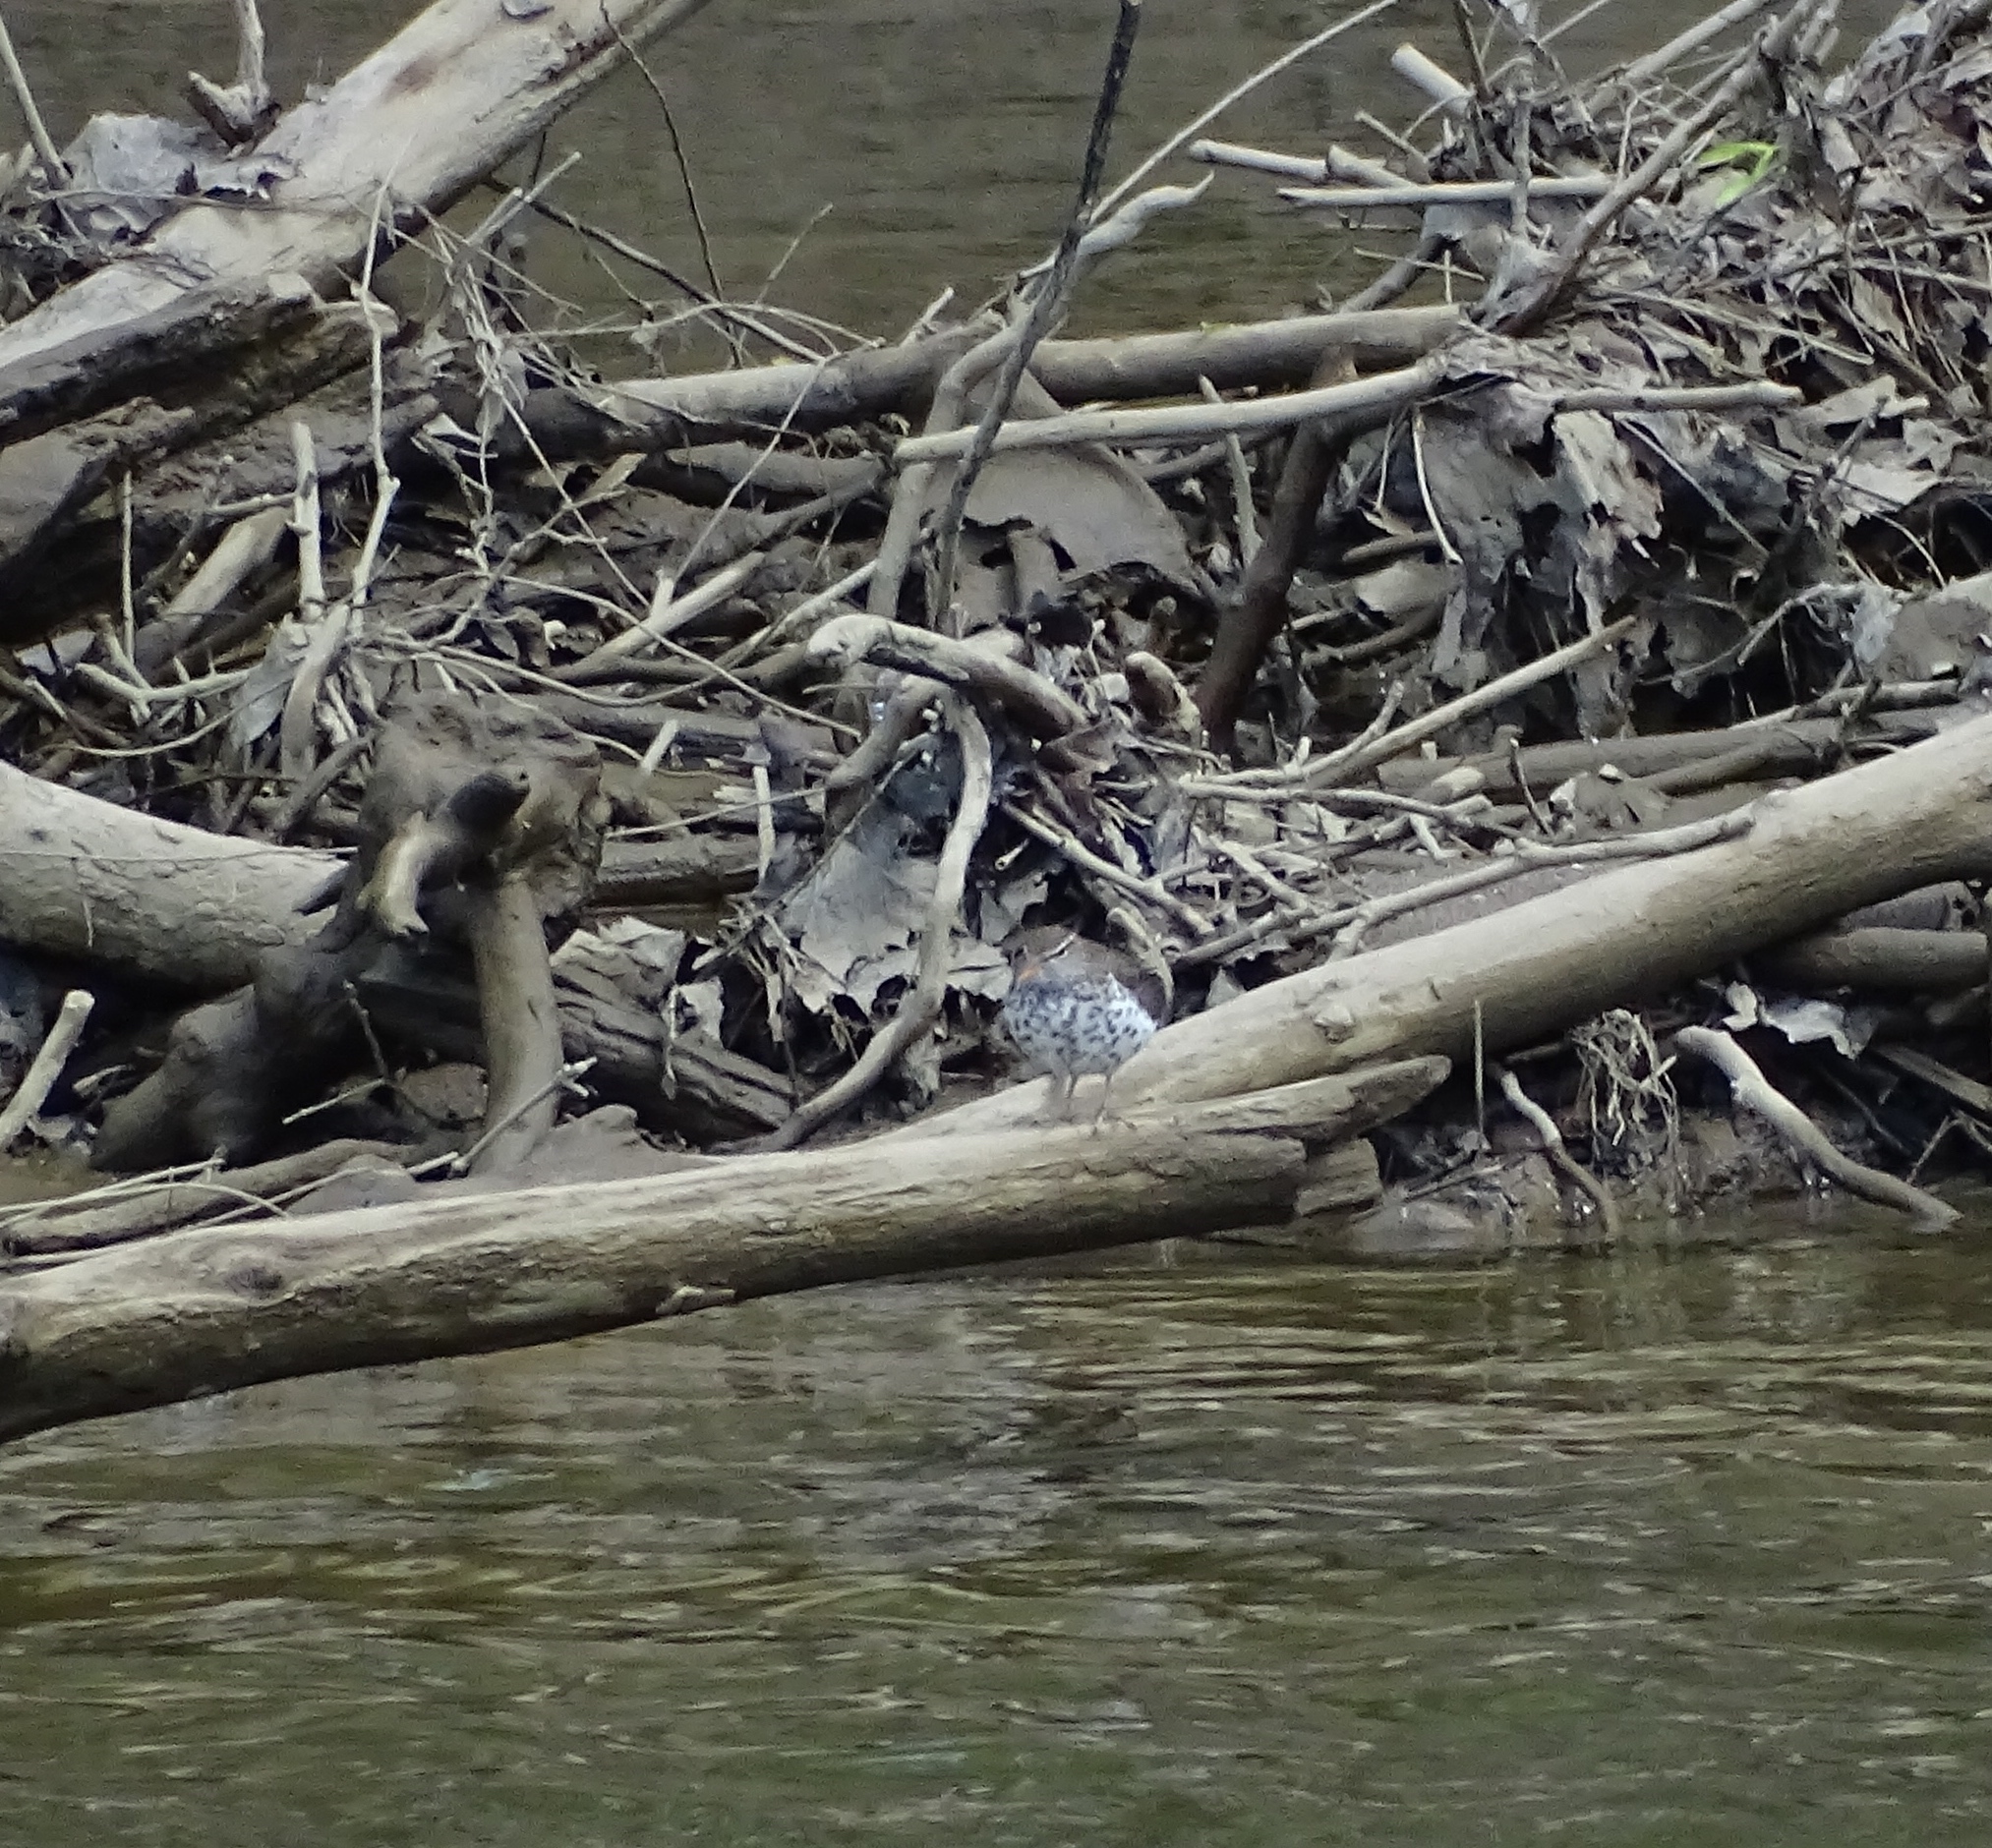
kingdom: Animalia
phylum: Chordata
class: Aves
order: Charadriiformes
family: Scolopacidae
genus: Actitis
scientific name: Actitis macularius
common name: Spotted sandpiper
